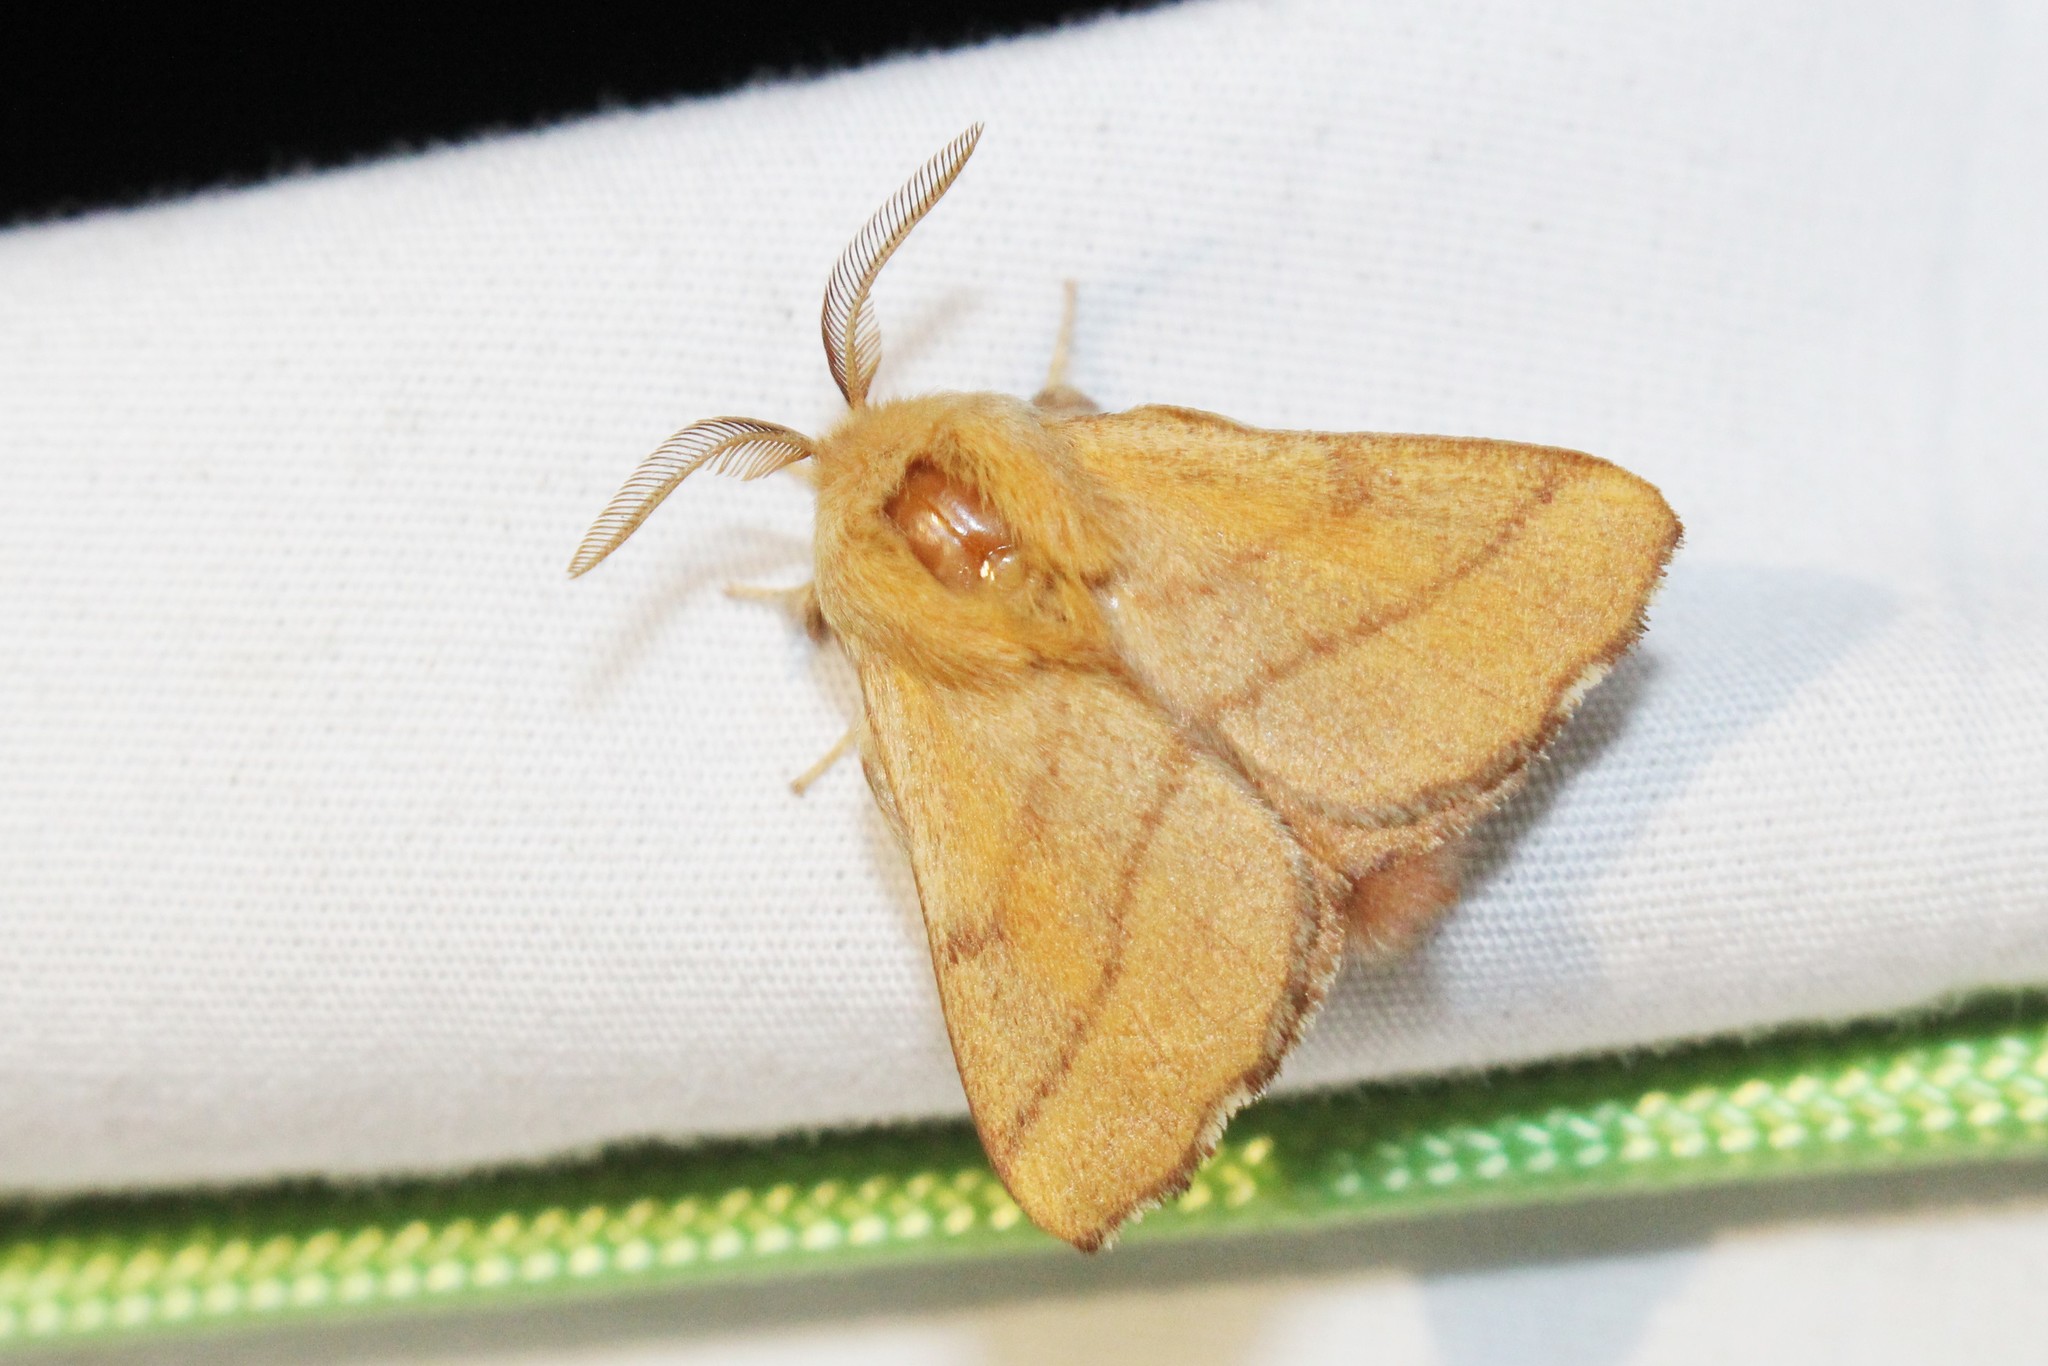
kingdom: Animalia
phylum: Arthropoda
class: Insecta
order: Lepidoptera
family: Lasiocampidae
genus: Malacosoma
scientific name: Malacosoma disstria
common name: Forest tent caterpillar
